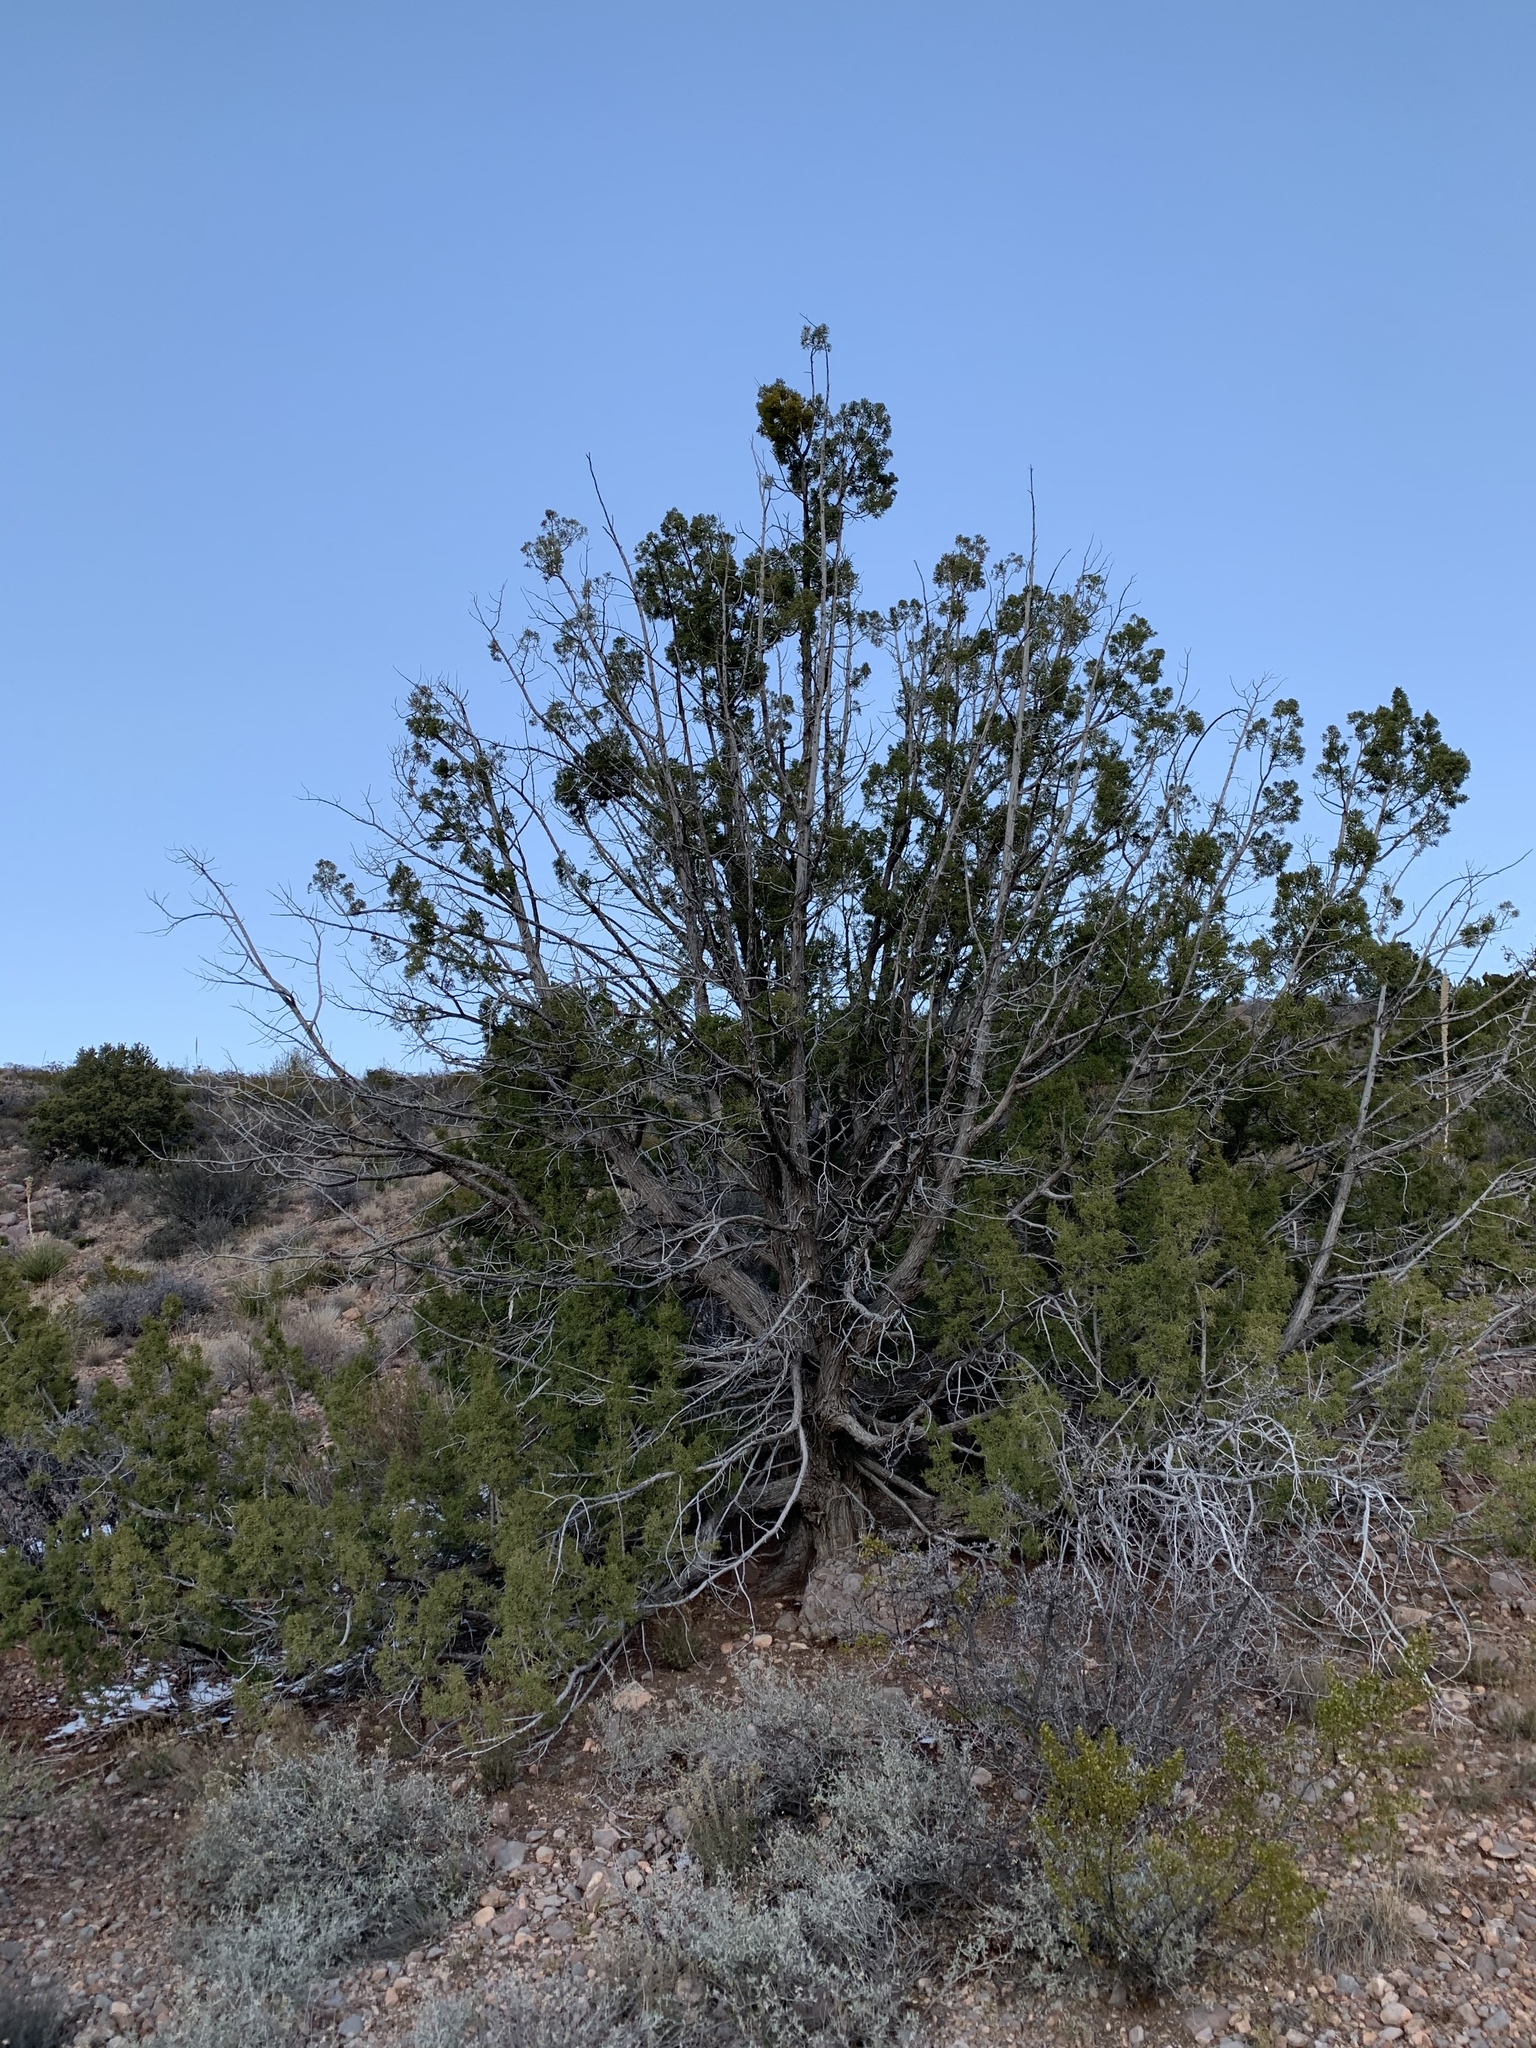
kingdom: Plantae
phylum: Tracheophyta
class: Pinopsida
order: Pinales
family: Cupressaceae
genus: Juniperus
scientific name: Juniperus monosperma
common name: One-seed juniper
